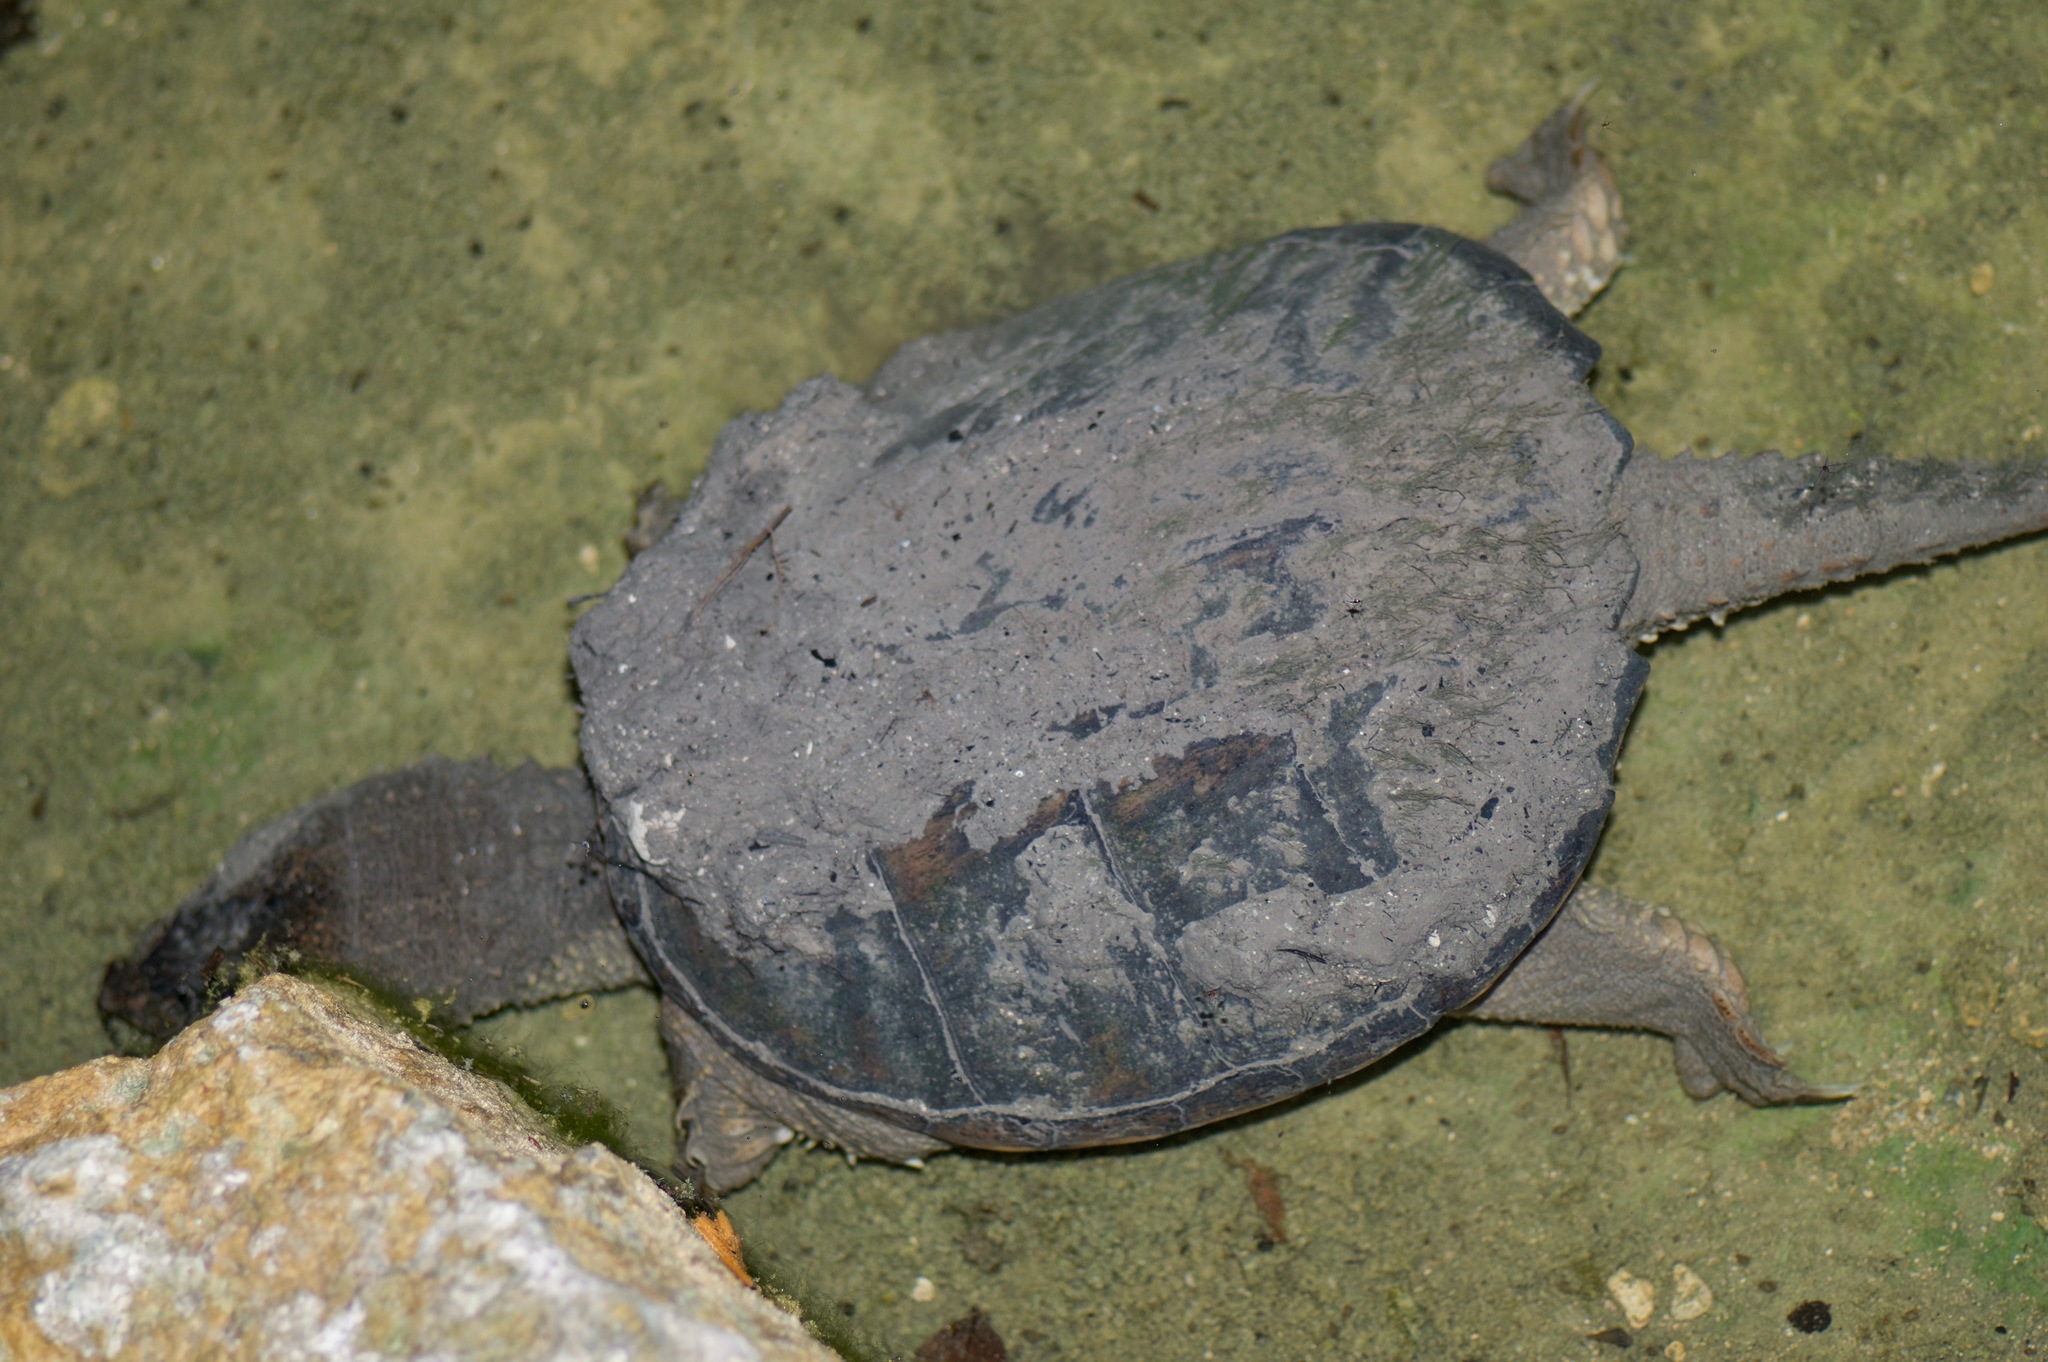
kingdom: Animalia
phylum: Chordata
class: Testudines
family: Chelydridae
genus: Chelydra
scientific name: Chelydra serpentina
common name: Common snapping turtle
